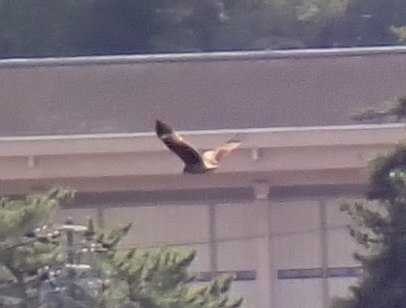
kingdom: Animalia
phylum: Chordata
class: Aves
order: Accipitriformes
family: Accipitridae
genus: Milvus
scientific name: Milvus migrans
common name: Black kite
